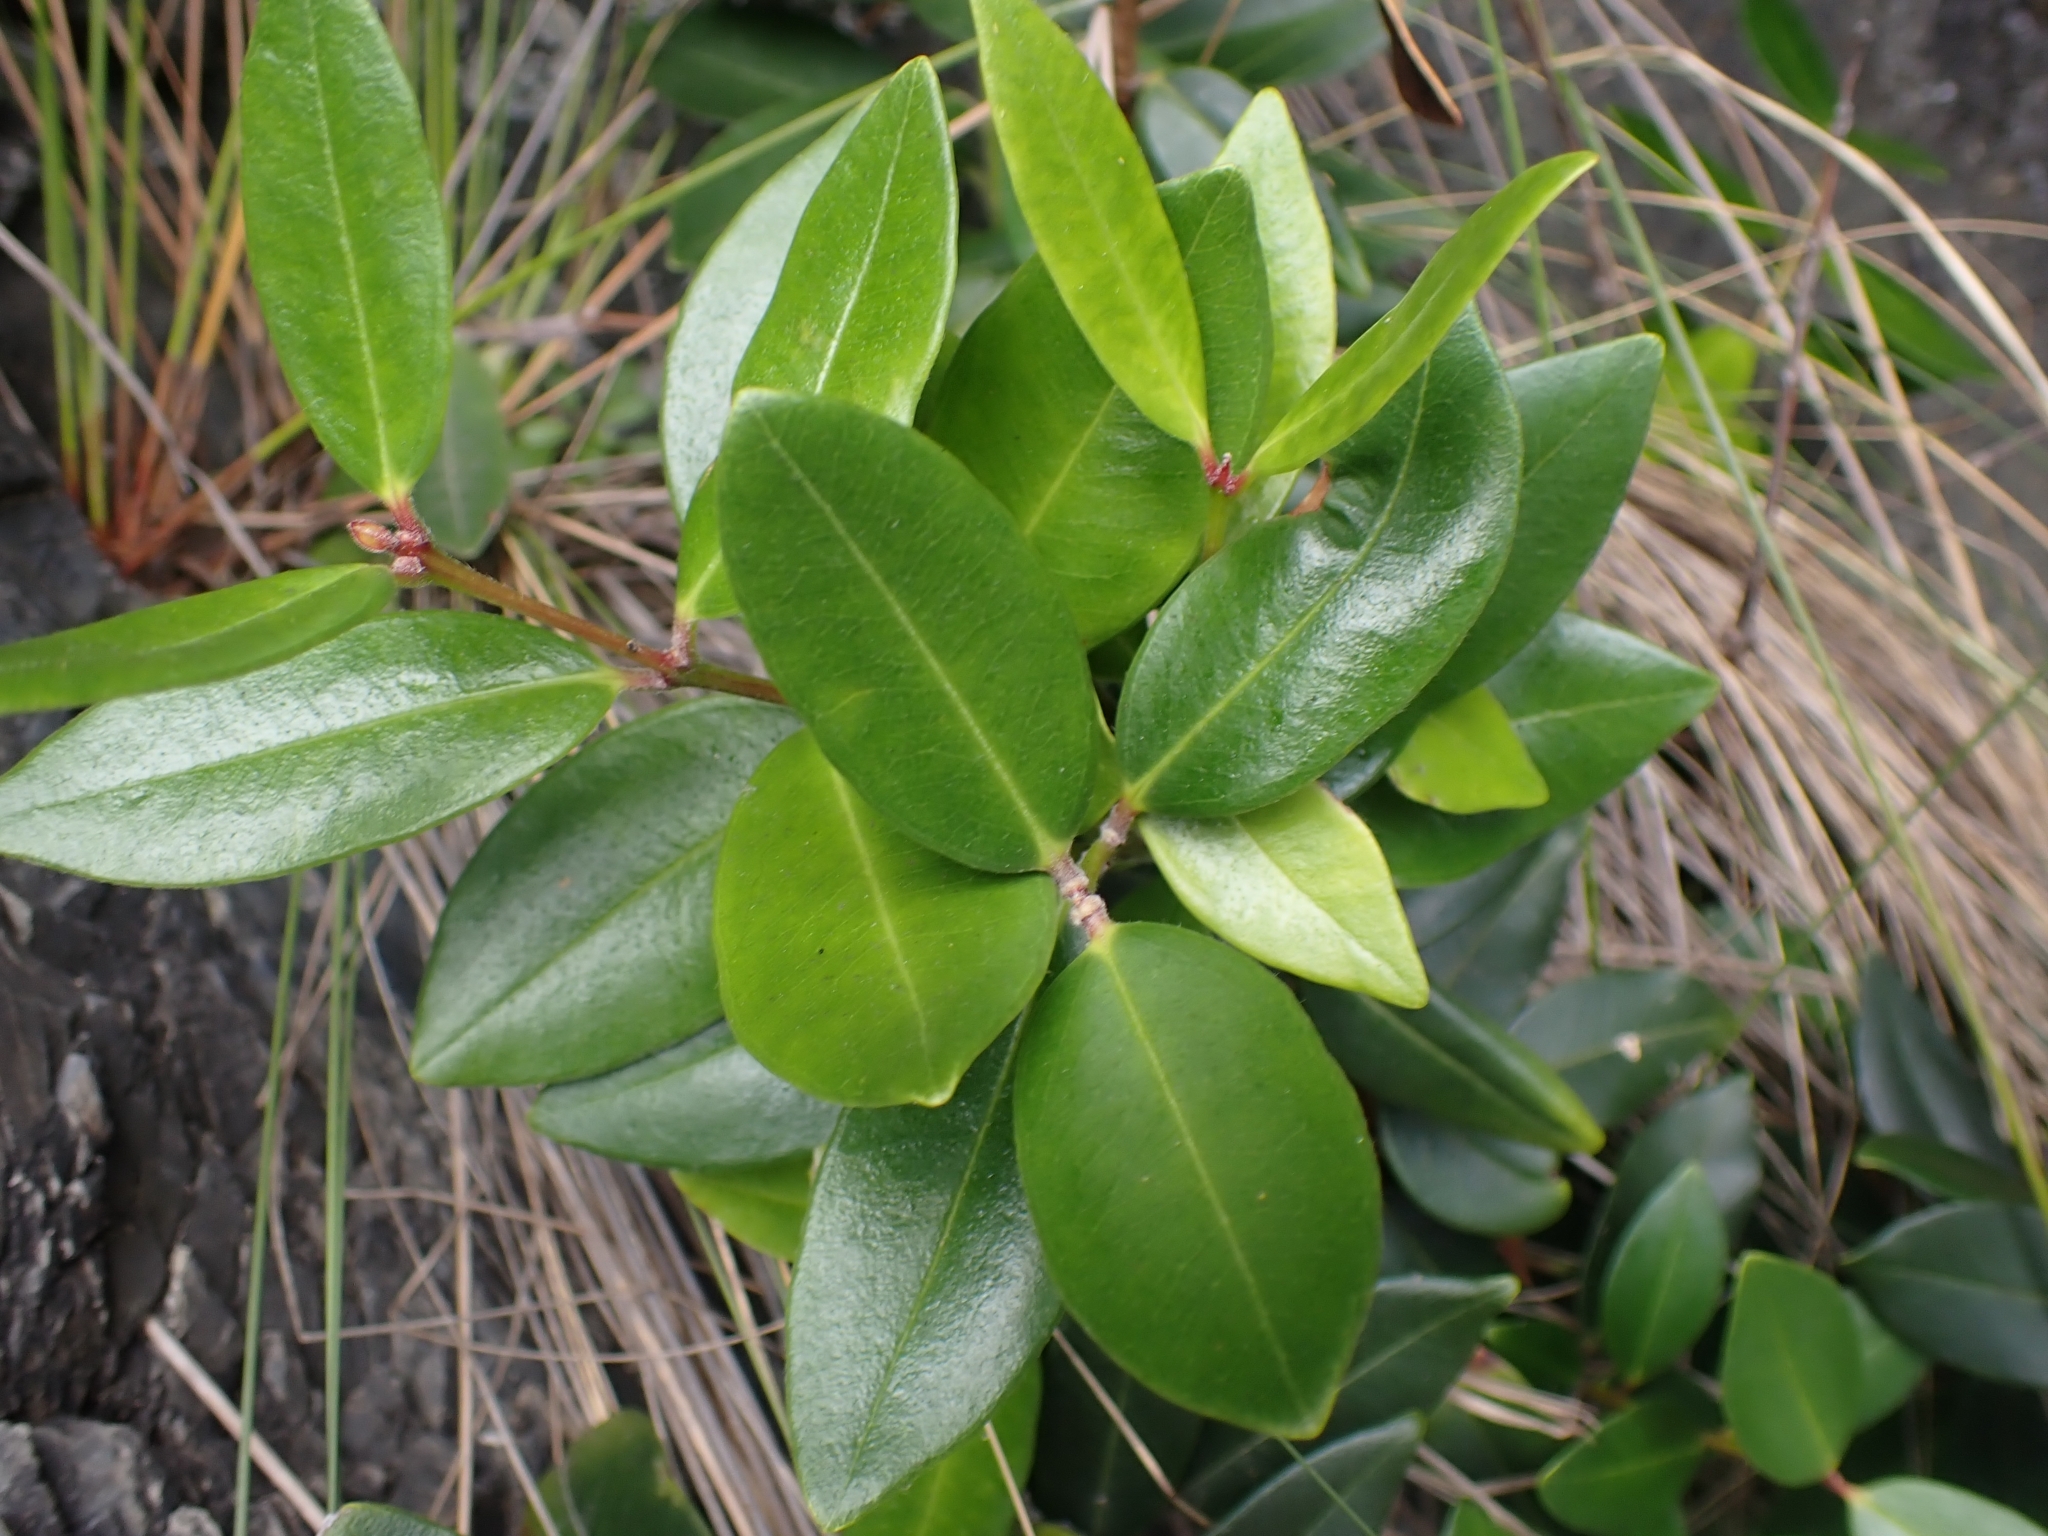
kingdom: Plantae
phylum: Tracheophyta
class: Magnoliopsida
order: Myrtales
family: Myrtaceae
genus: Metrosideros
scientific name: Metrosideros excelsa
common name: New zealand christmastree
